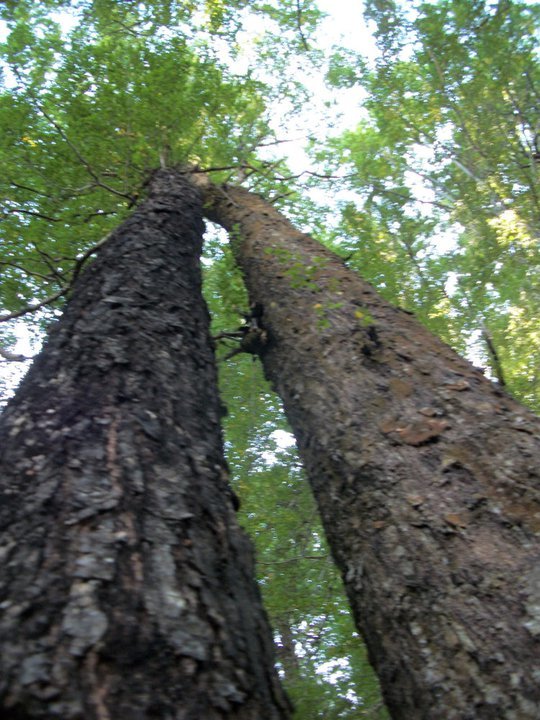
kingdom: Plantae
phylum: Tracheophyta
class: Magnoliopsida
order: Fagales
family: Nothofagaceae
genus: Nothofagus
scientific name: Nothofagus fusca
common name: Red beech
